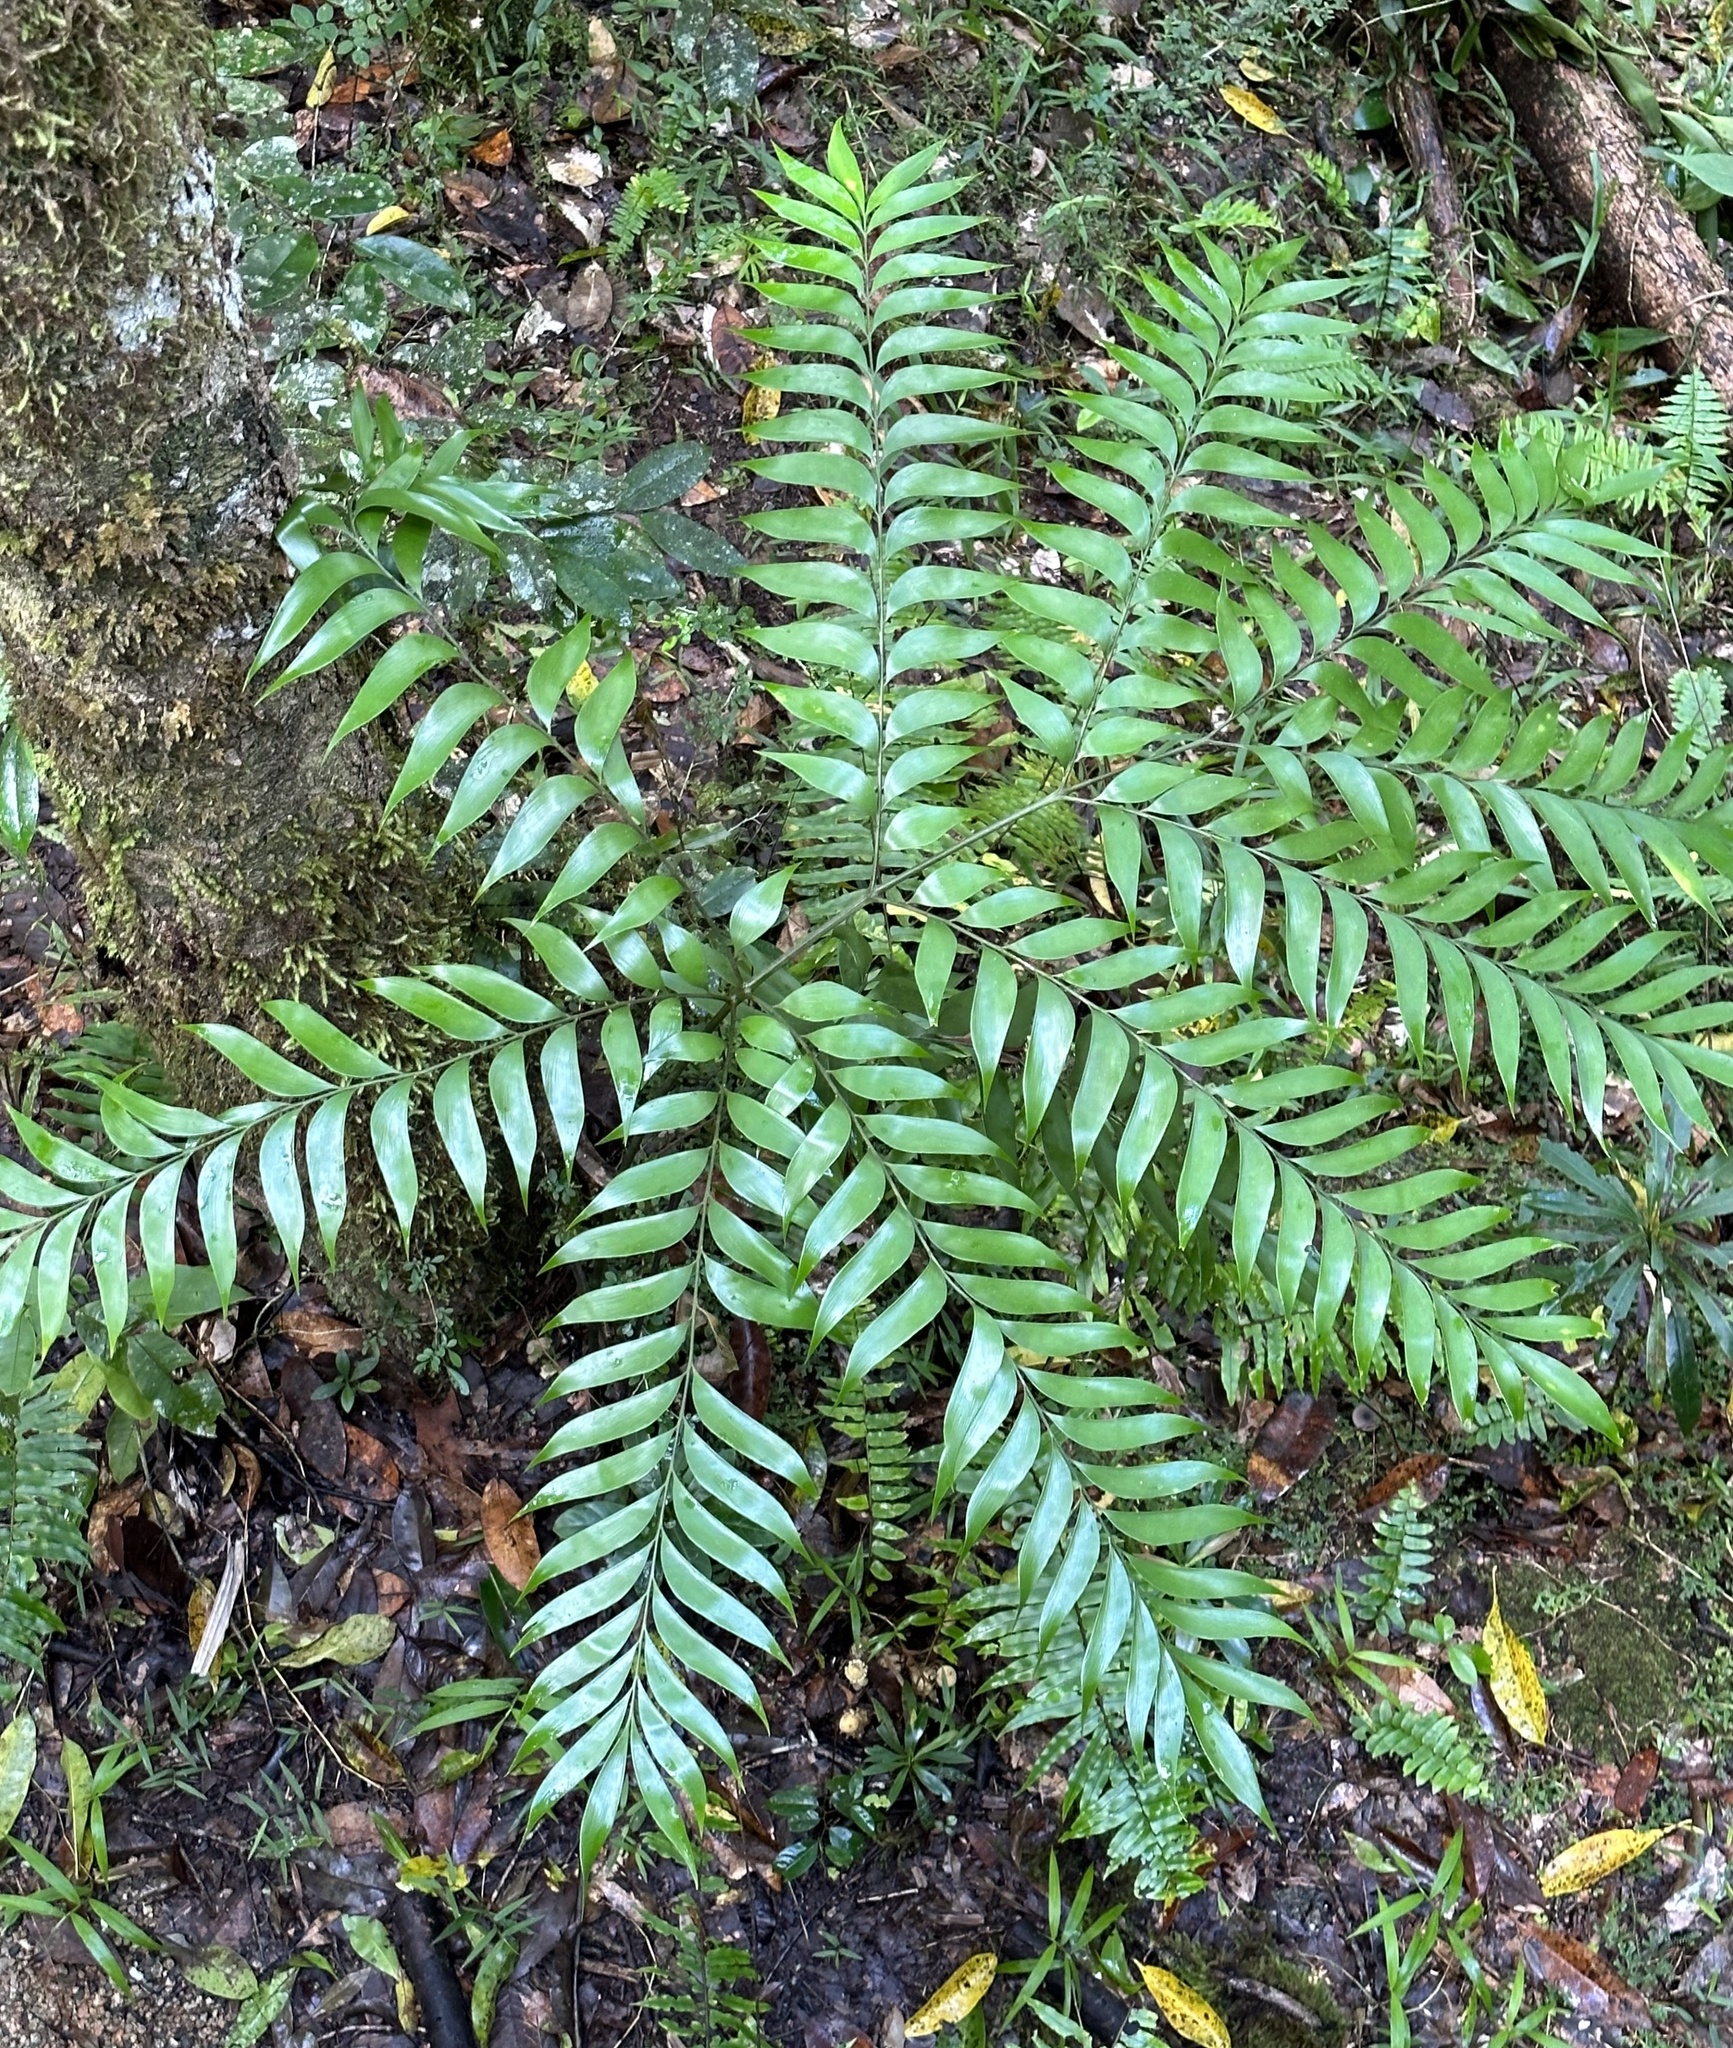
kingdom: Plantae
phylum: Tracheophyta
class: Cycadopsida
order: Cycadales
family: Zamiaceae
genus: Bowenia
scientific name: Bowenia spectabilis
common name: Zamia-fern
